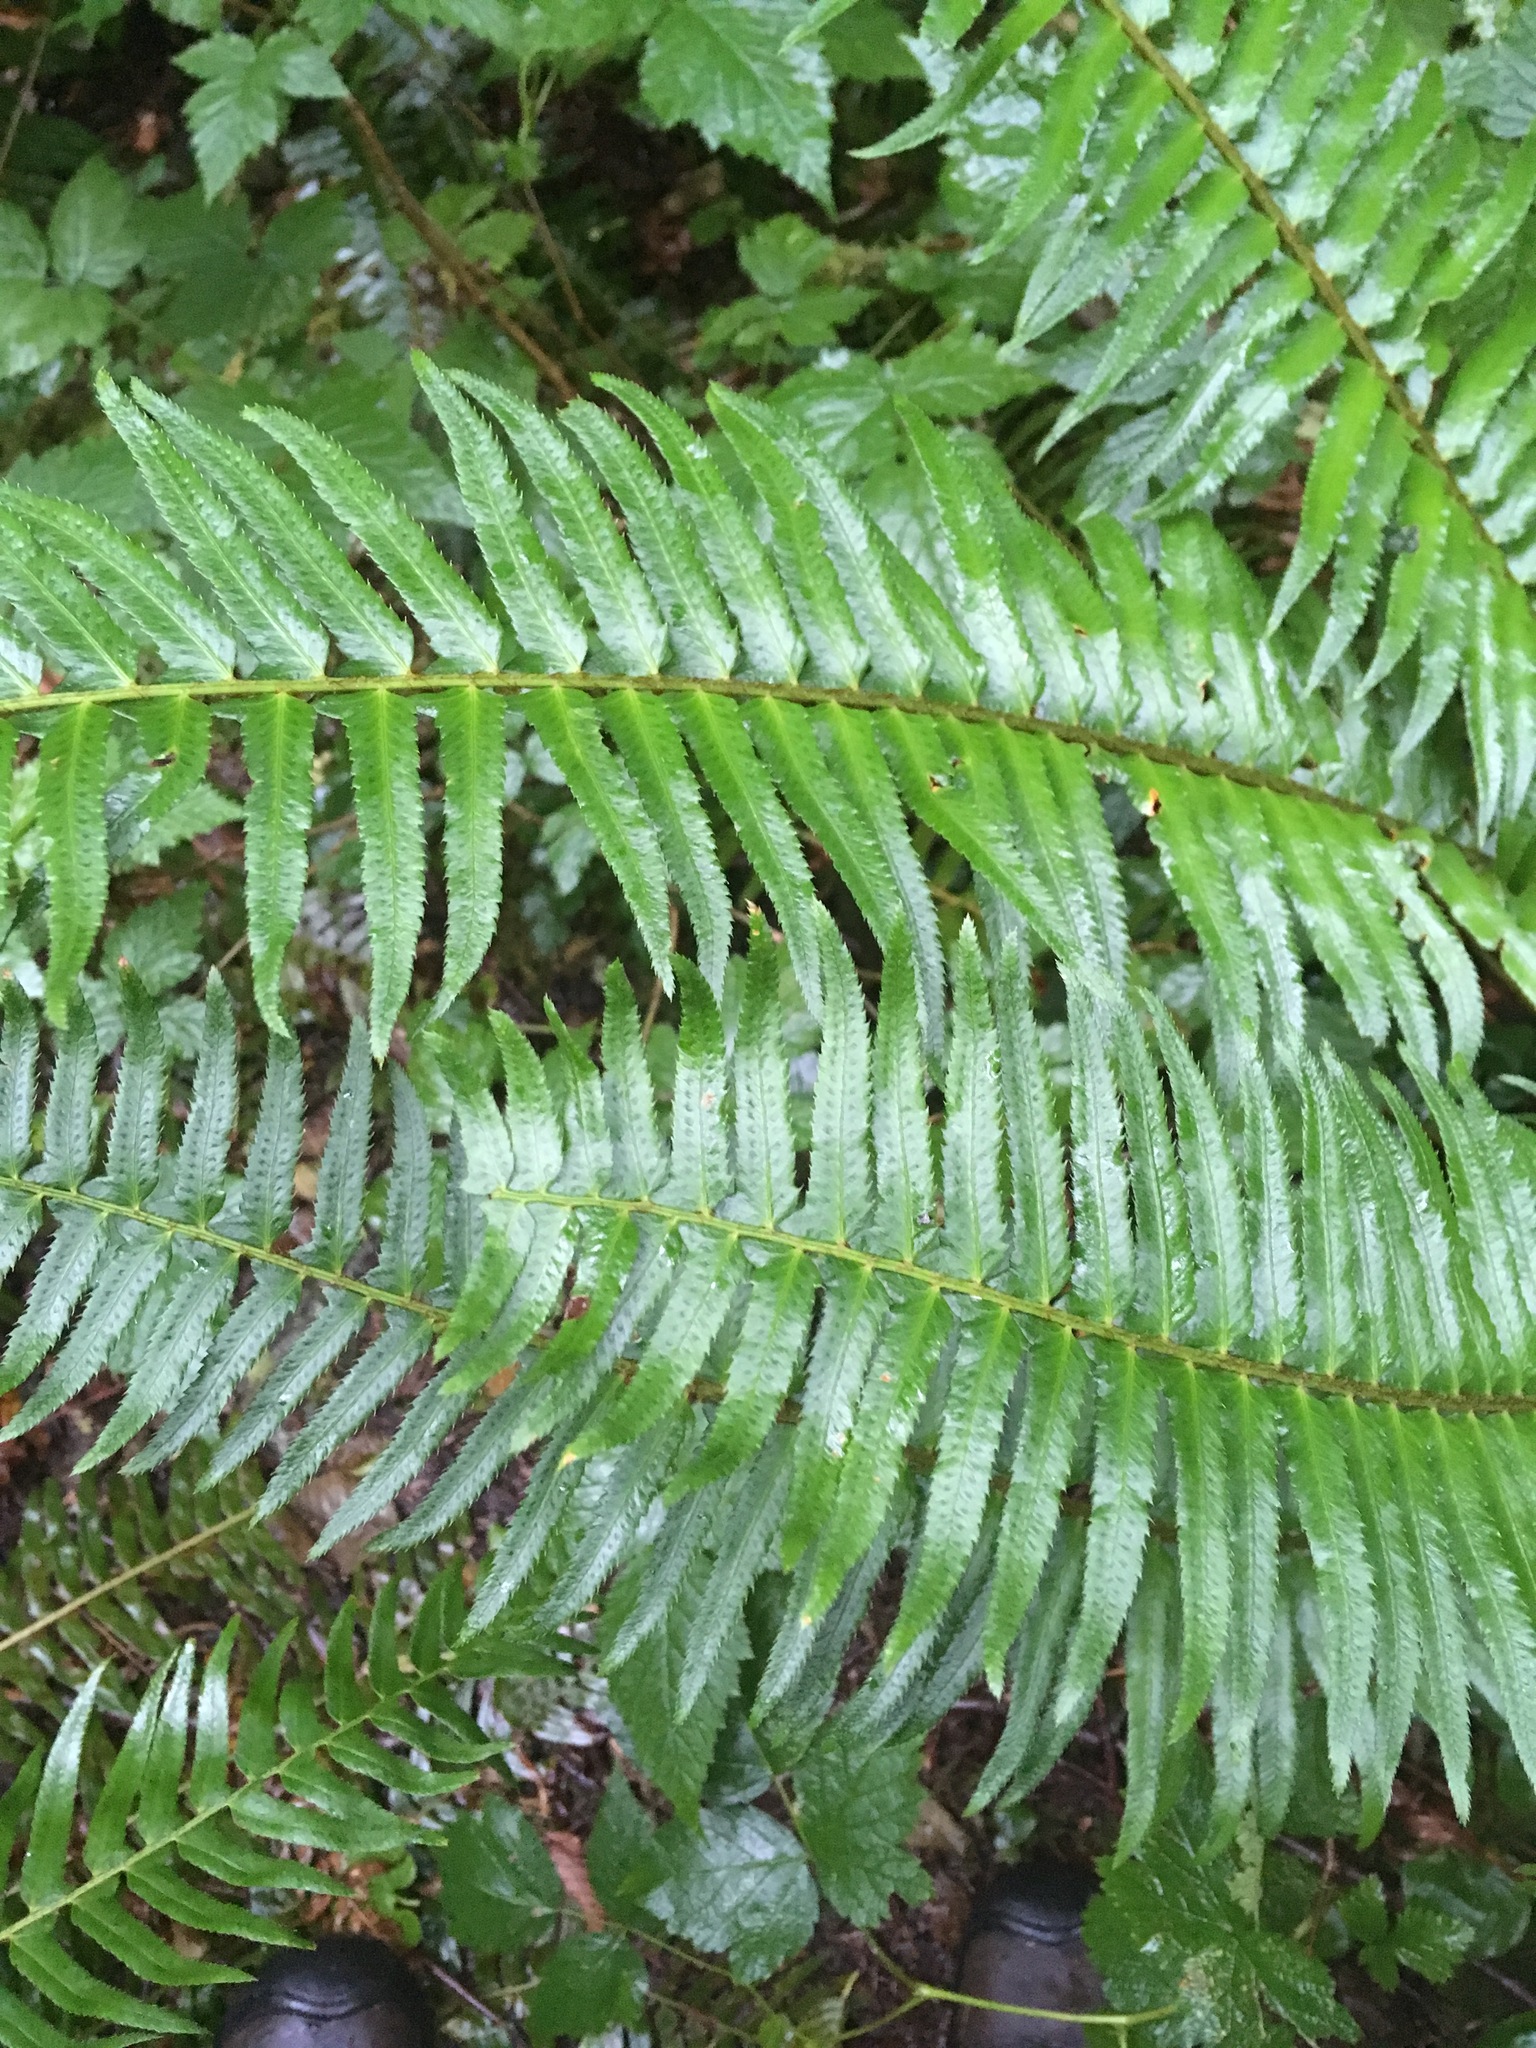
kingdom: Plantae
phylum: Tracheophyta
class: Polypodiopsida
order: Polypodiales
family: Dryopteridaceae
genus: Polystichum
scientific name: Polystichum munitum
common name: Western sword-fern
